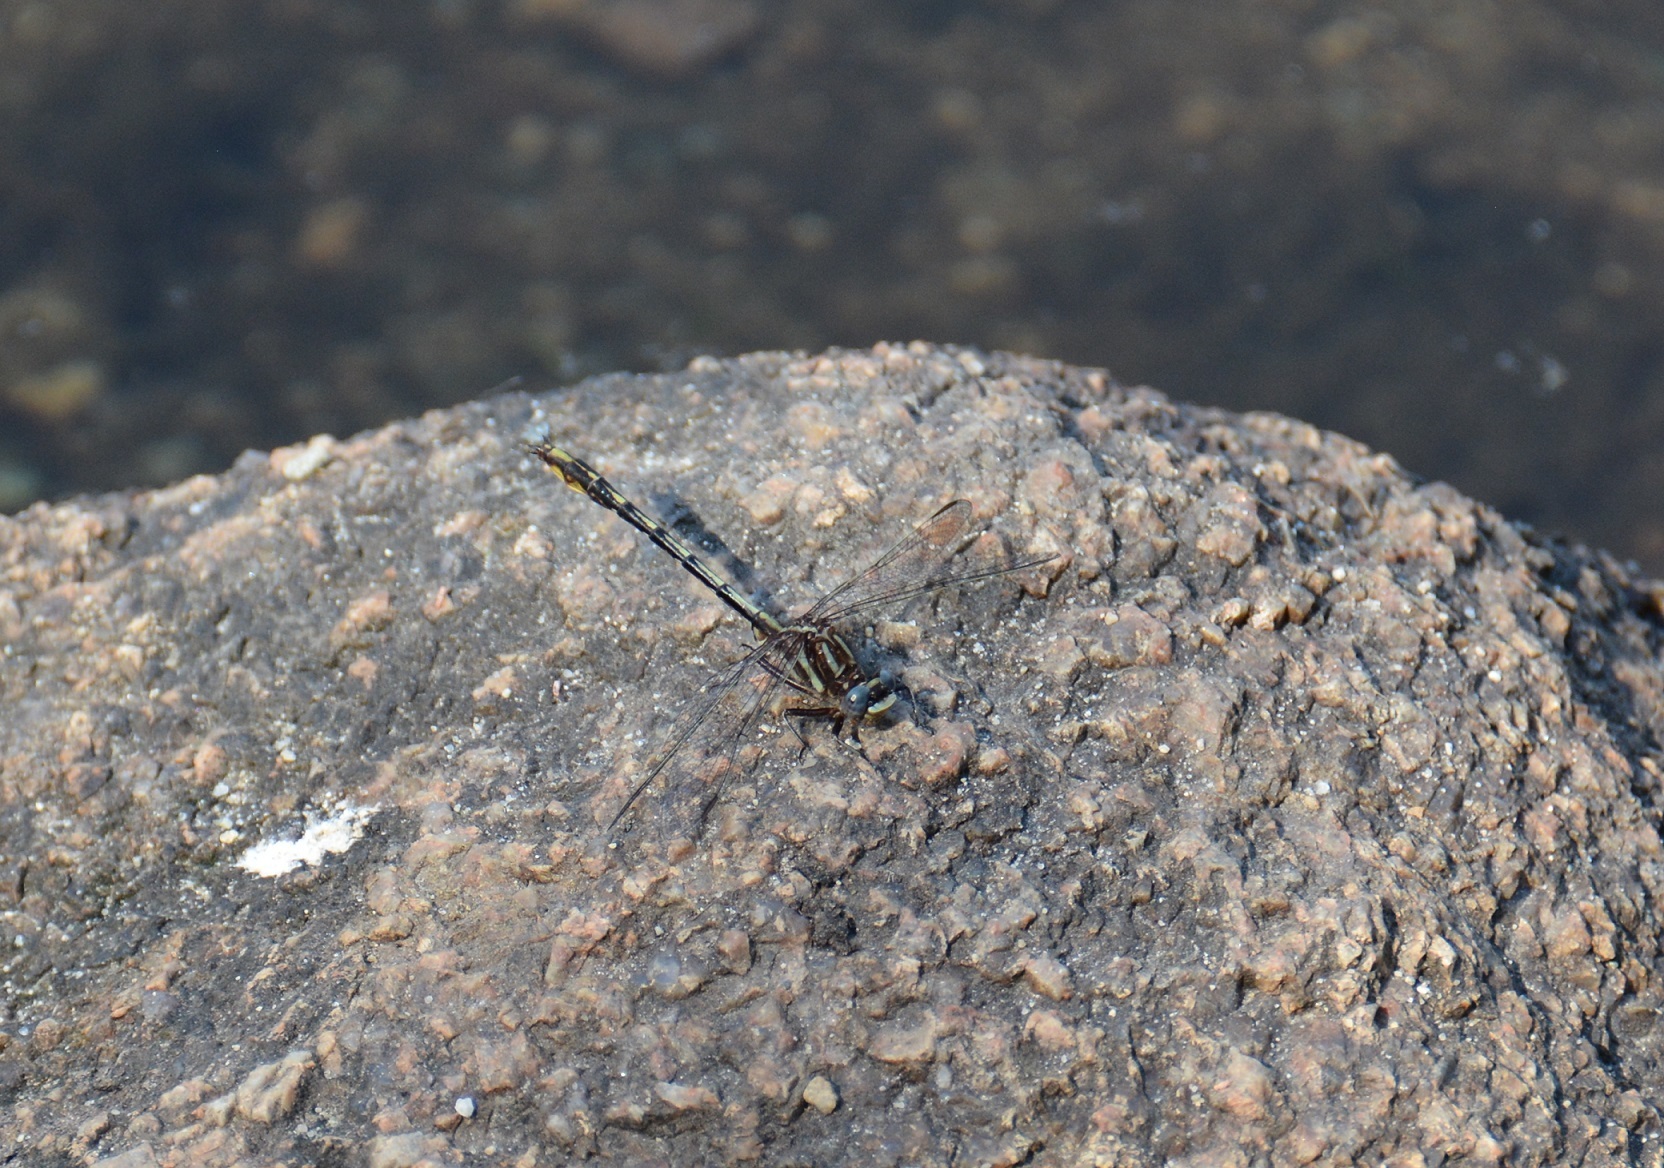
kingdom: Animalia
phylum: Arthropoda
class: Insecta
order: Odonata
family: Gomphidae
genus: Phanogomphus
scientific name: Phanogomphus exilis
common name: Lancet clubtail
